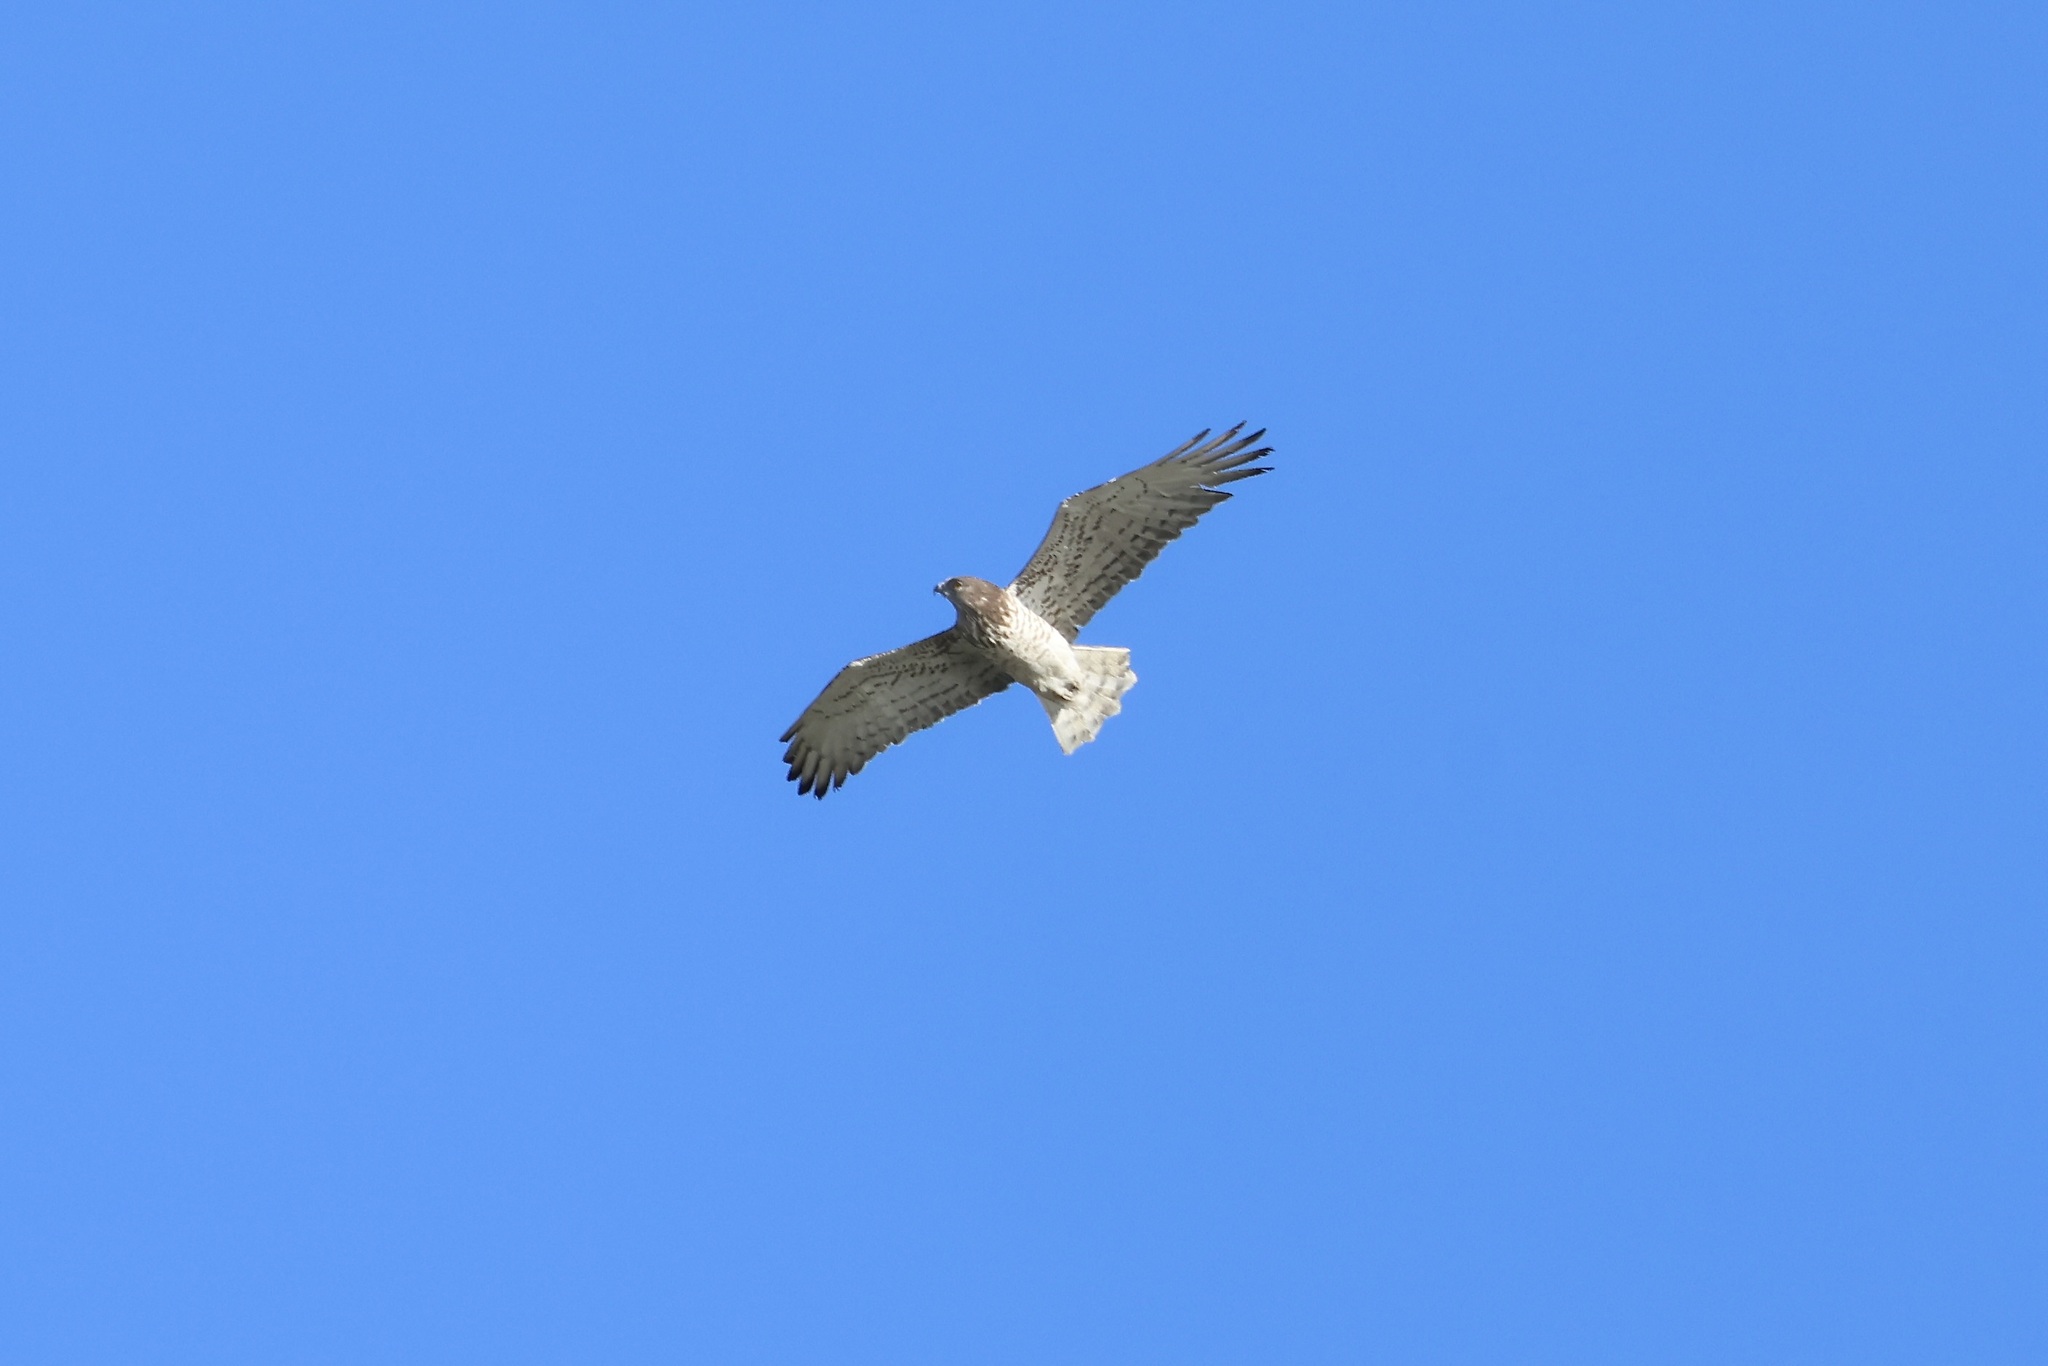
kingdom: Animalia
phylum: Chordata
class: Aves
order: Accipitriformes
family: Accipitridae
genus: Circaetus
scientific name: Circaetus gallicus
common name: Short-toed snake eagle
